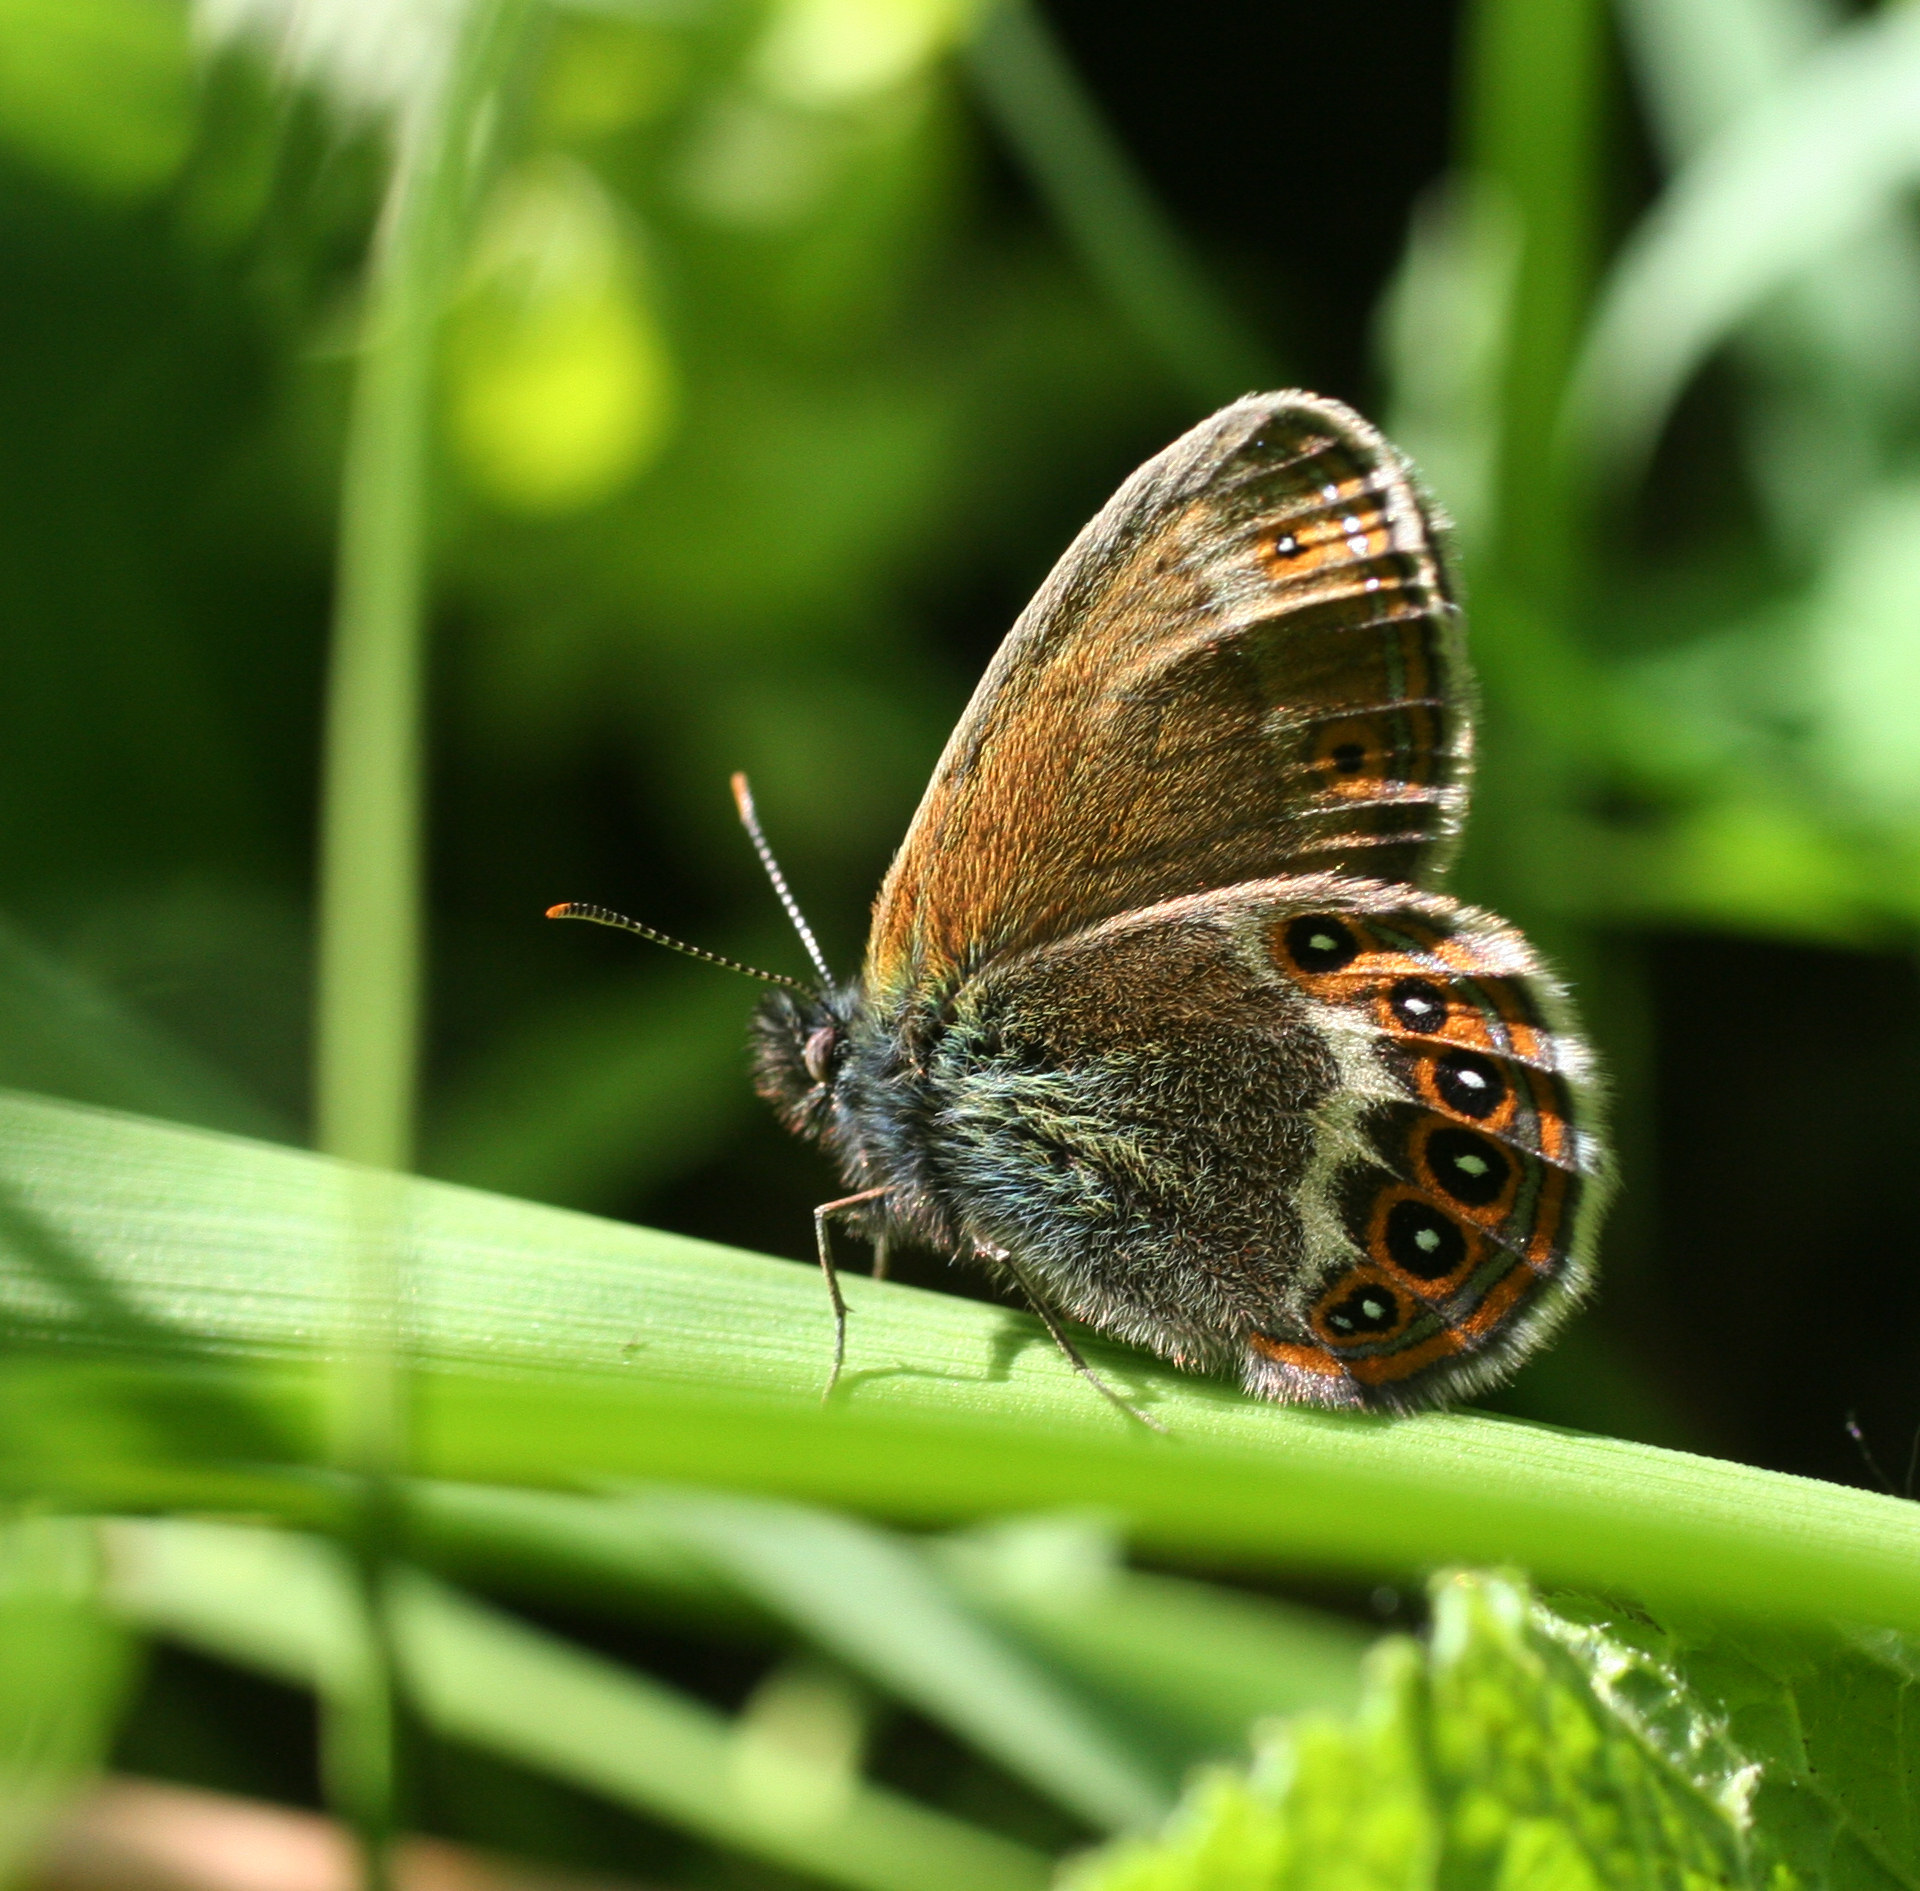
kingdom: Animalia
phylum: Arthropoda
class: Insecta
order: Lepidoptera
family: Nymphalidae
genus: Coenonympha
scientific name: Coenonympha hero
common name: Scarce heath
